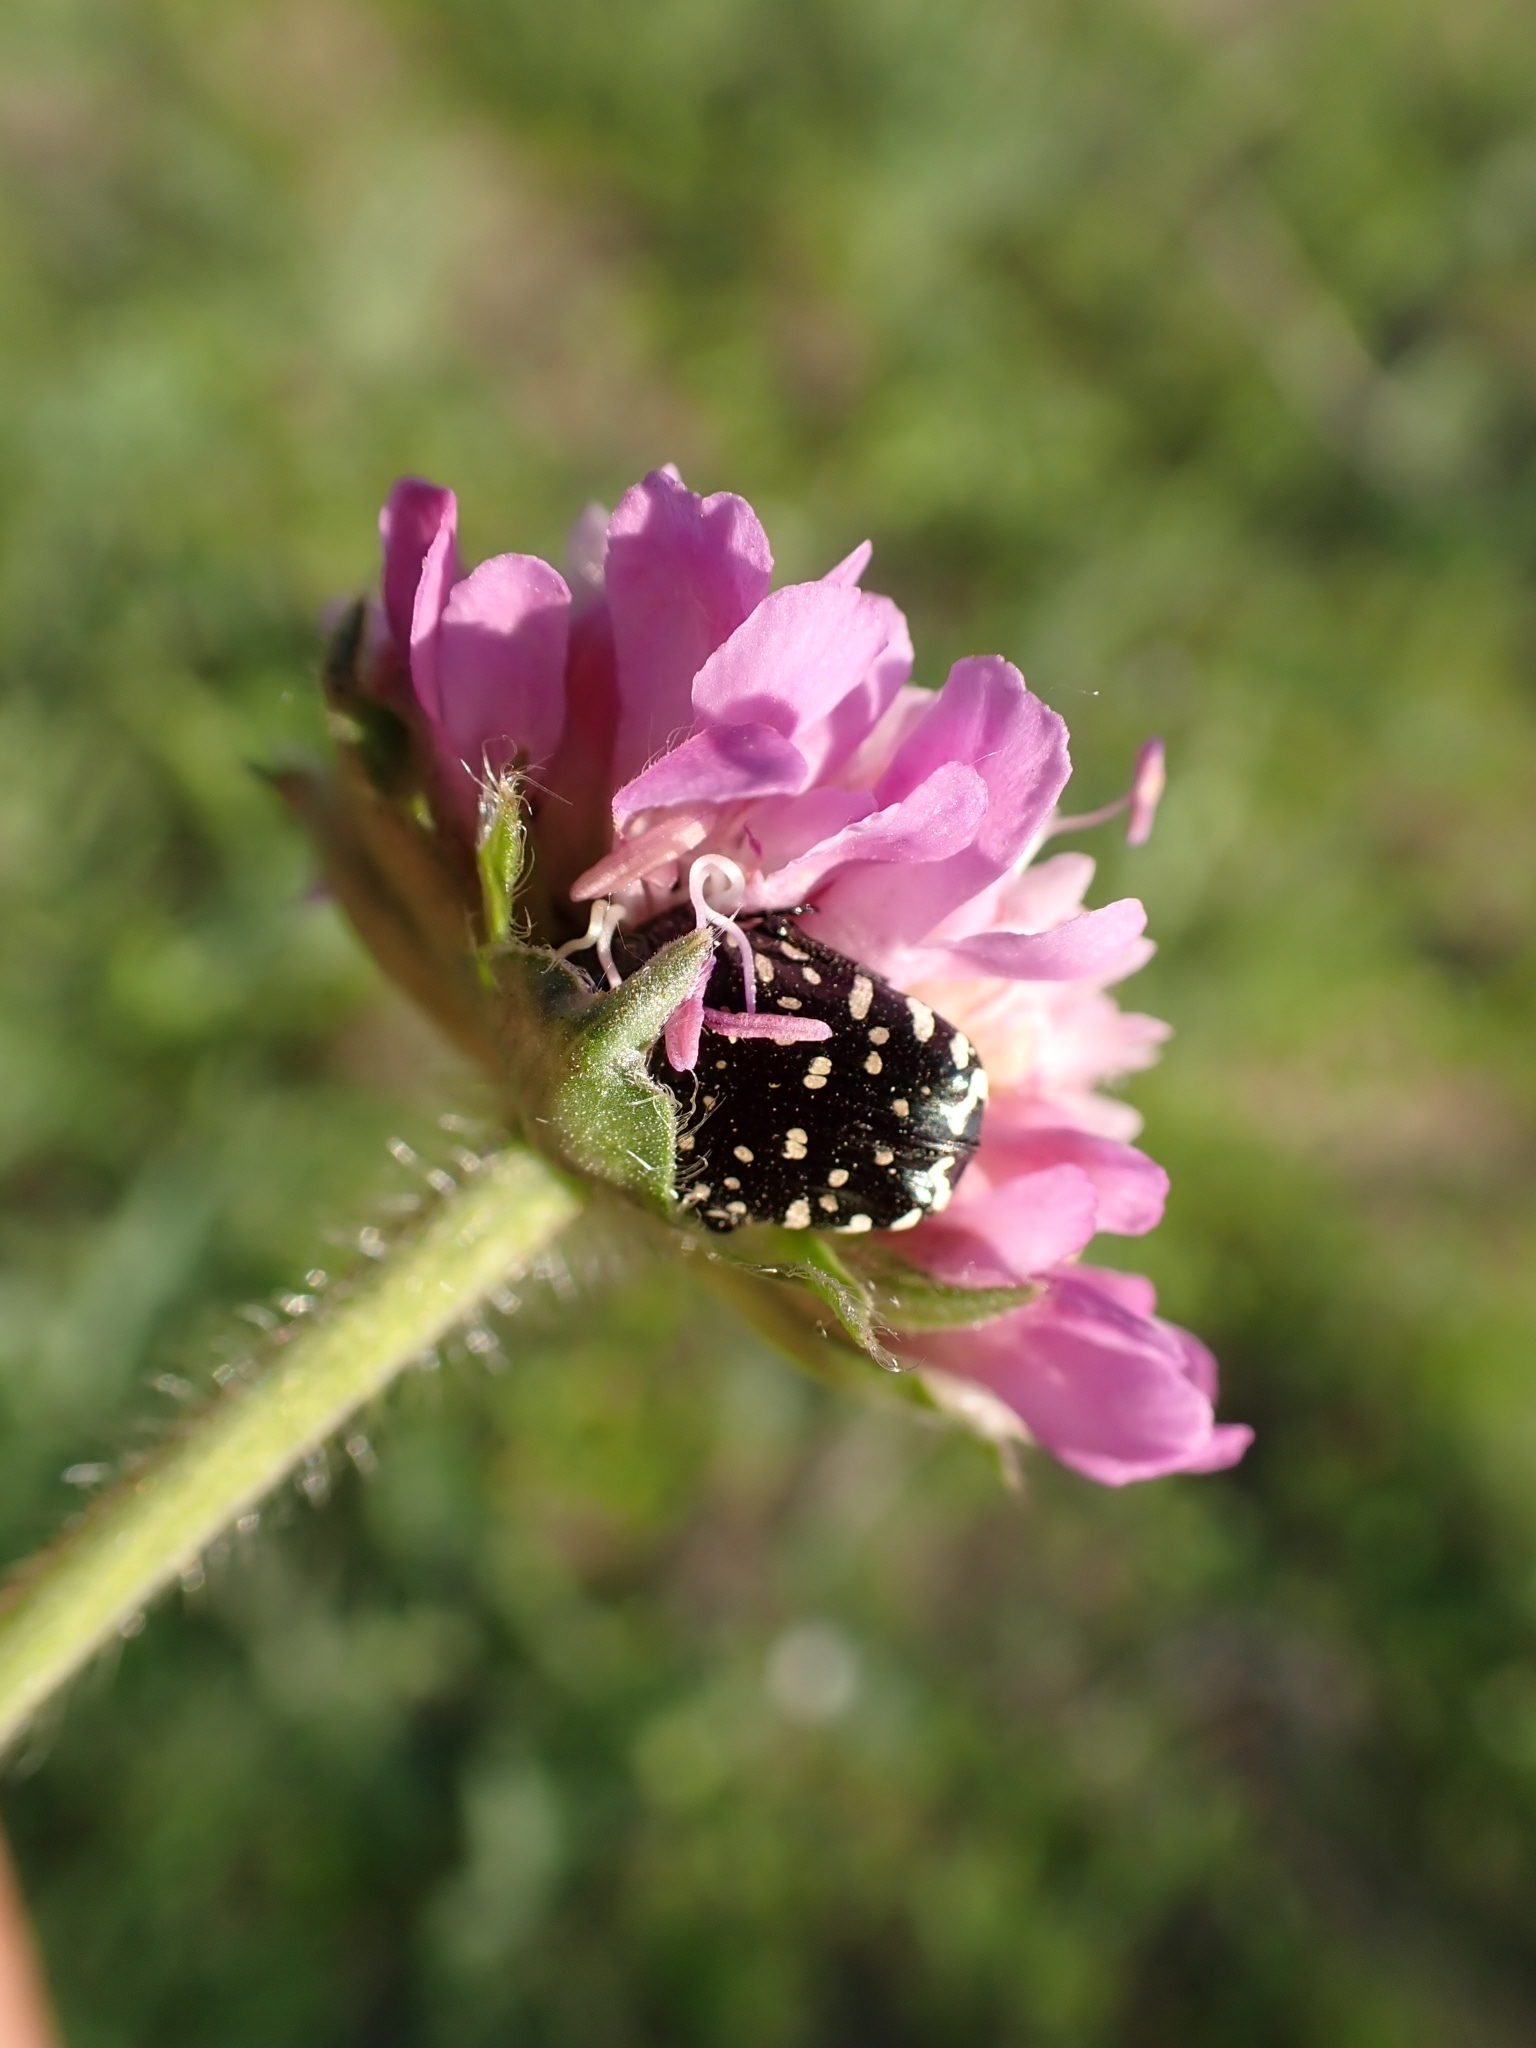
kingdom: Animalia
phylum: Arthropoda
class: Insecta
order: Coleoptera
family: Scarabaeidae
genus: Oxythyrea
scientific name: Oxythyrea funesta
